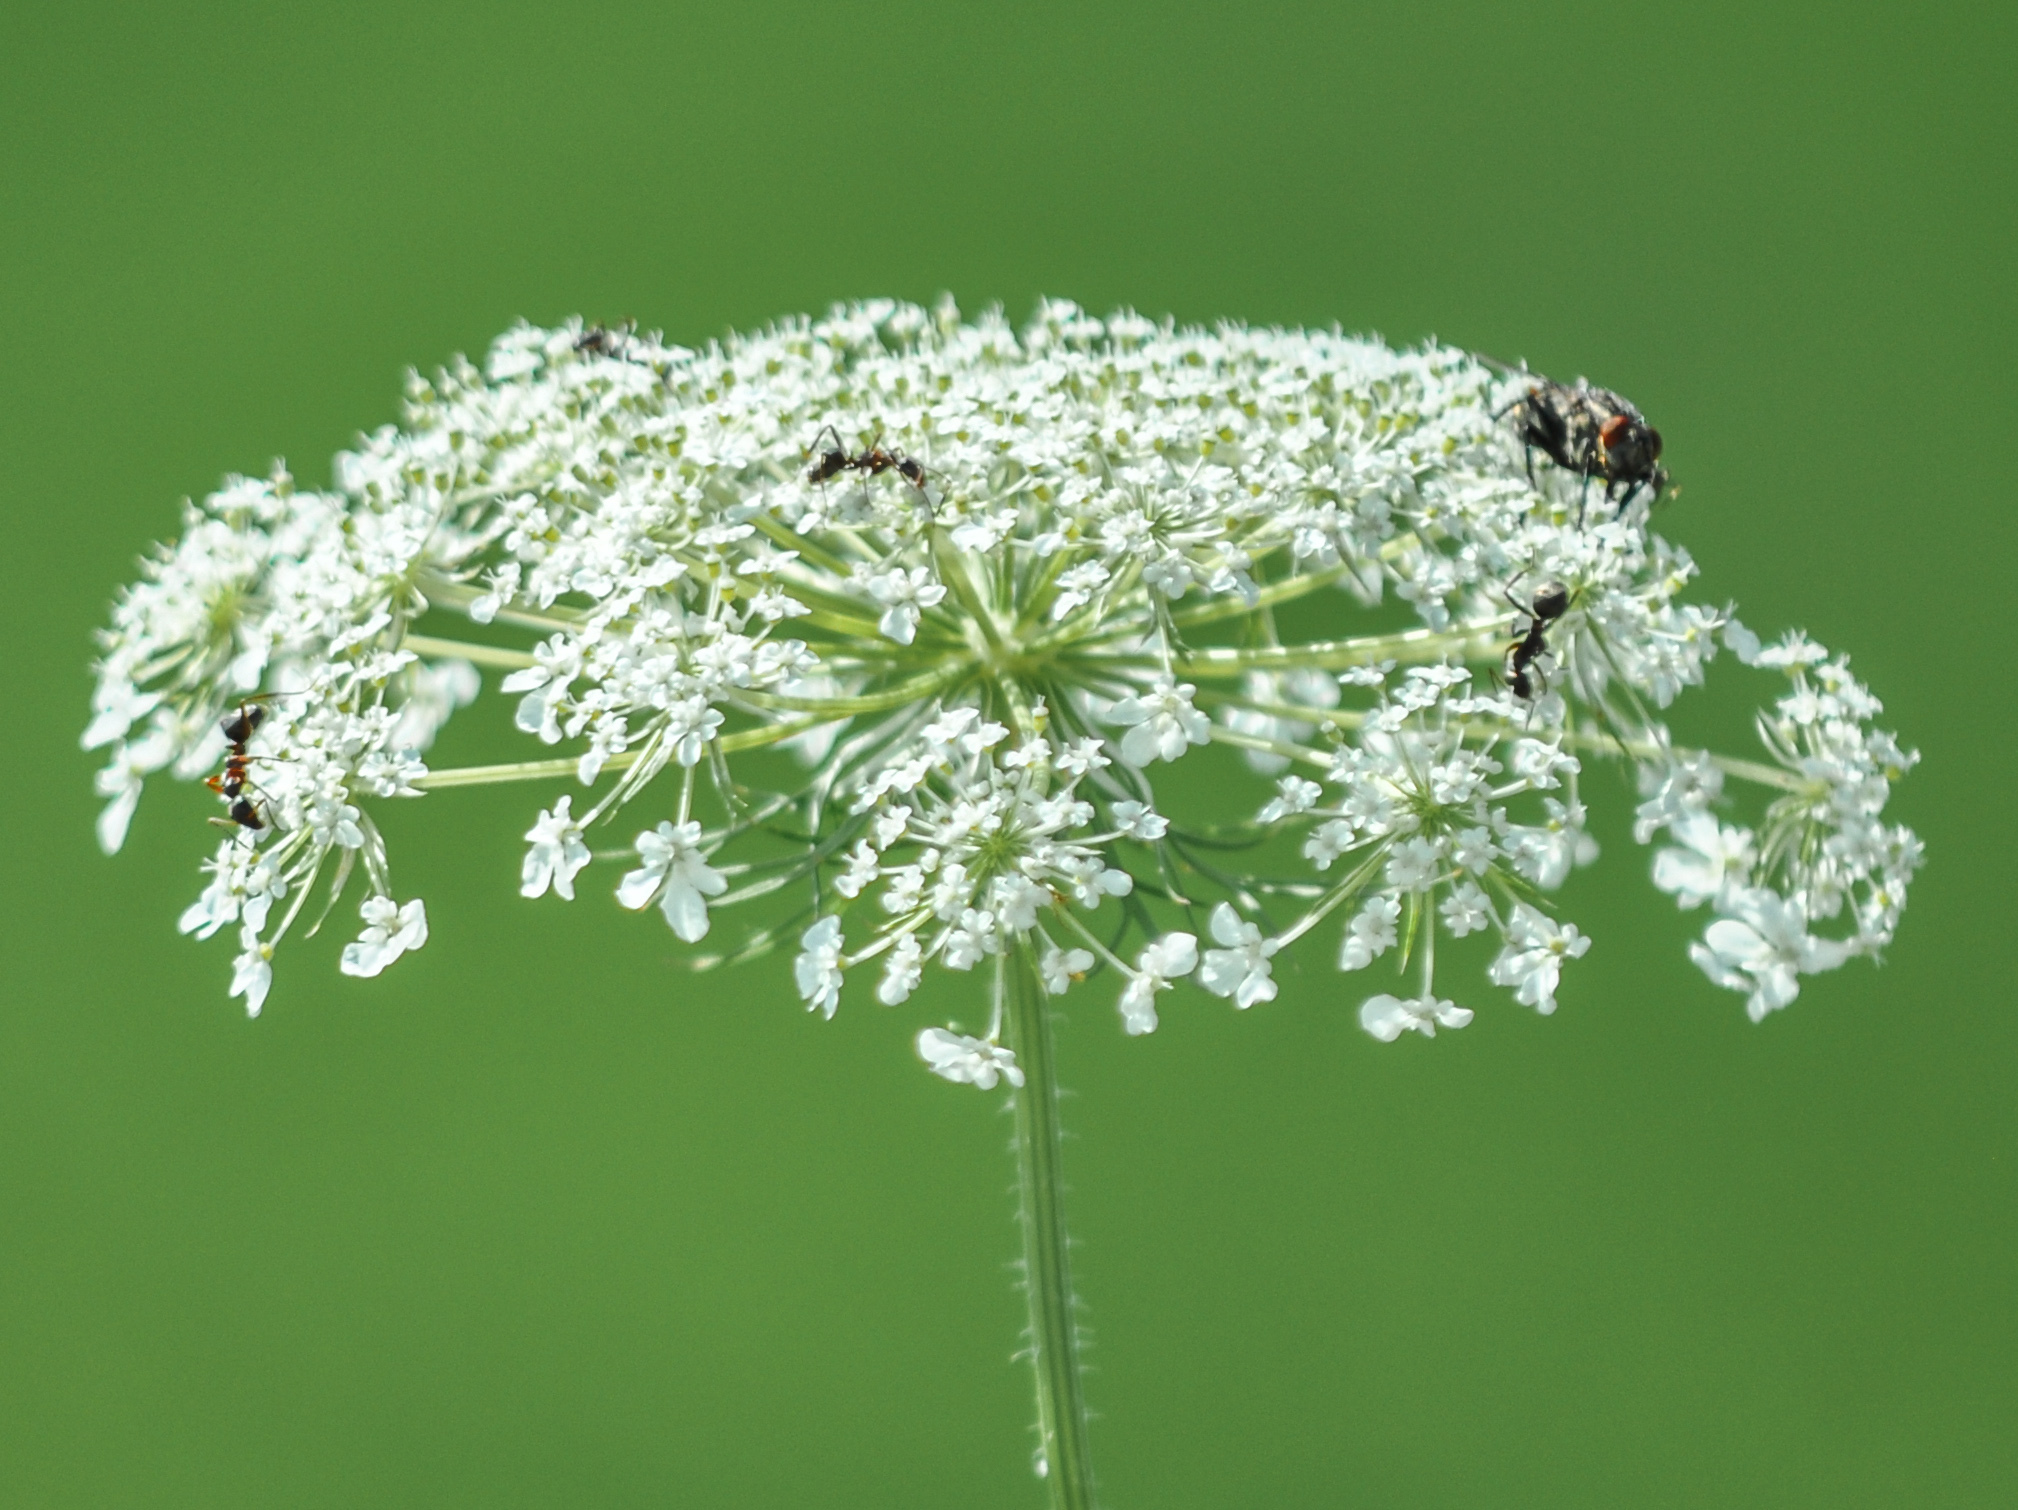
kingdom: Plantae
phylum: Tracheophyta
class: Magnoliopsida
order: Apiales
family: Apiaceae
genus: Daucus
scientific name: Daucus carota
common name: Wild carrot
